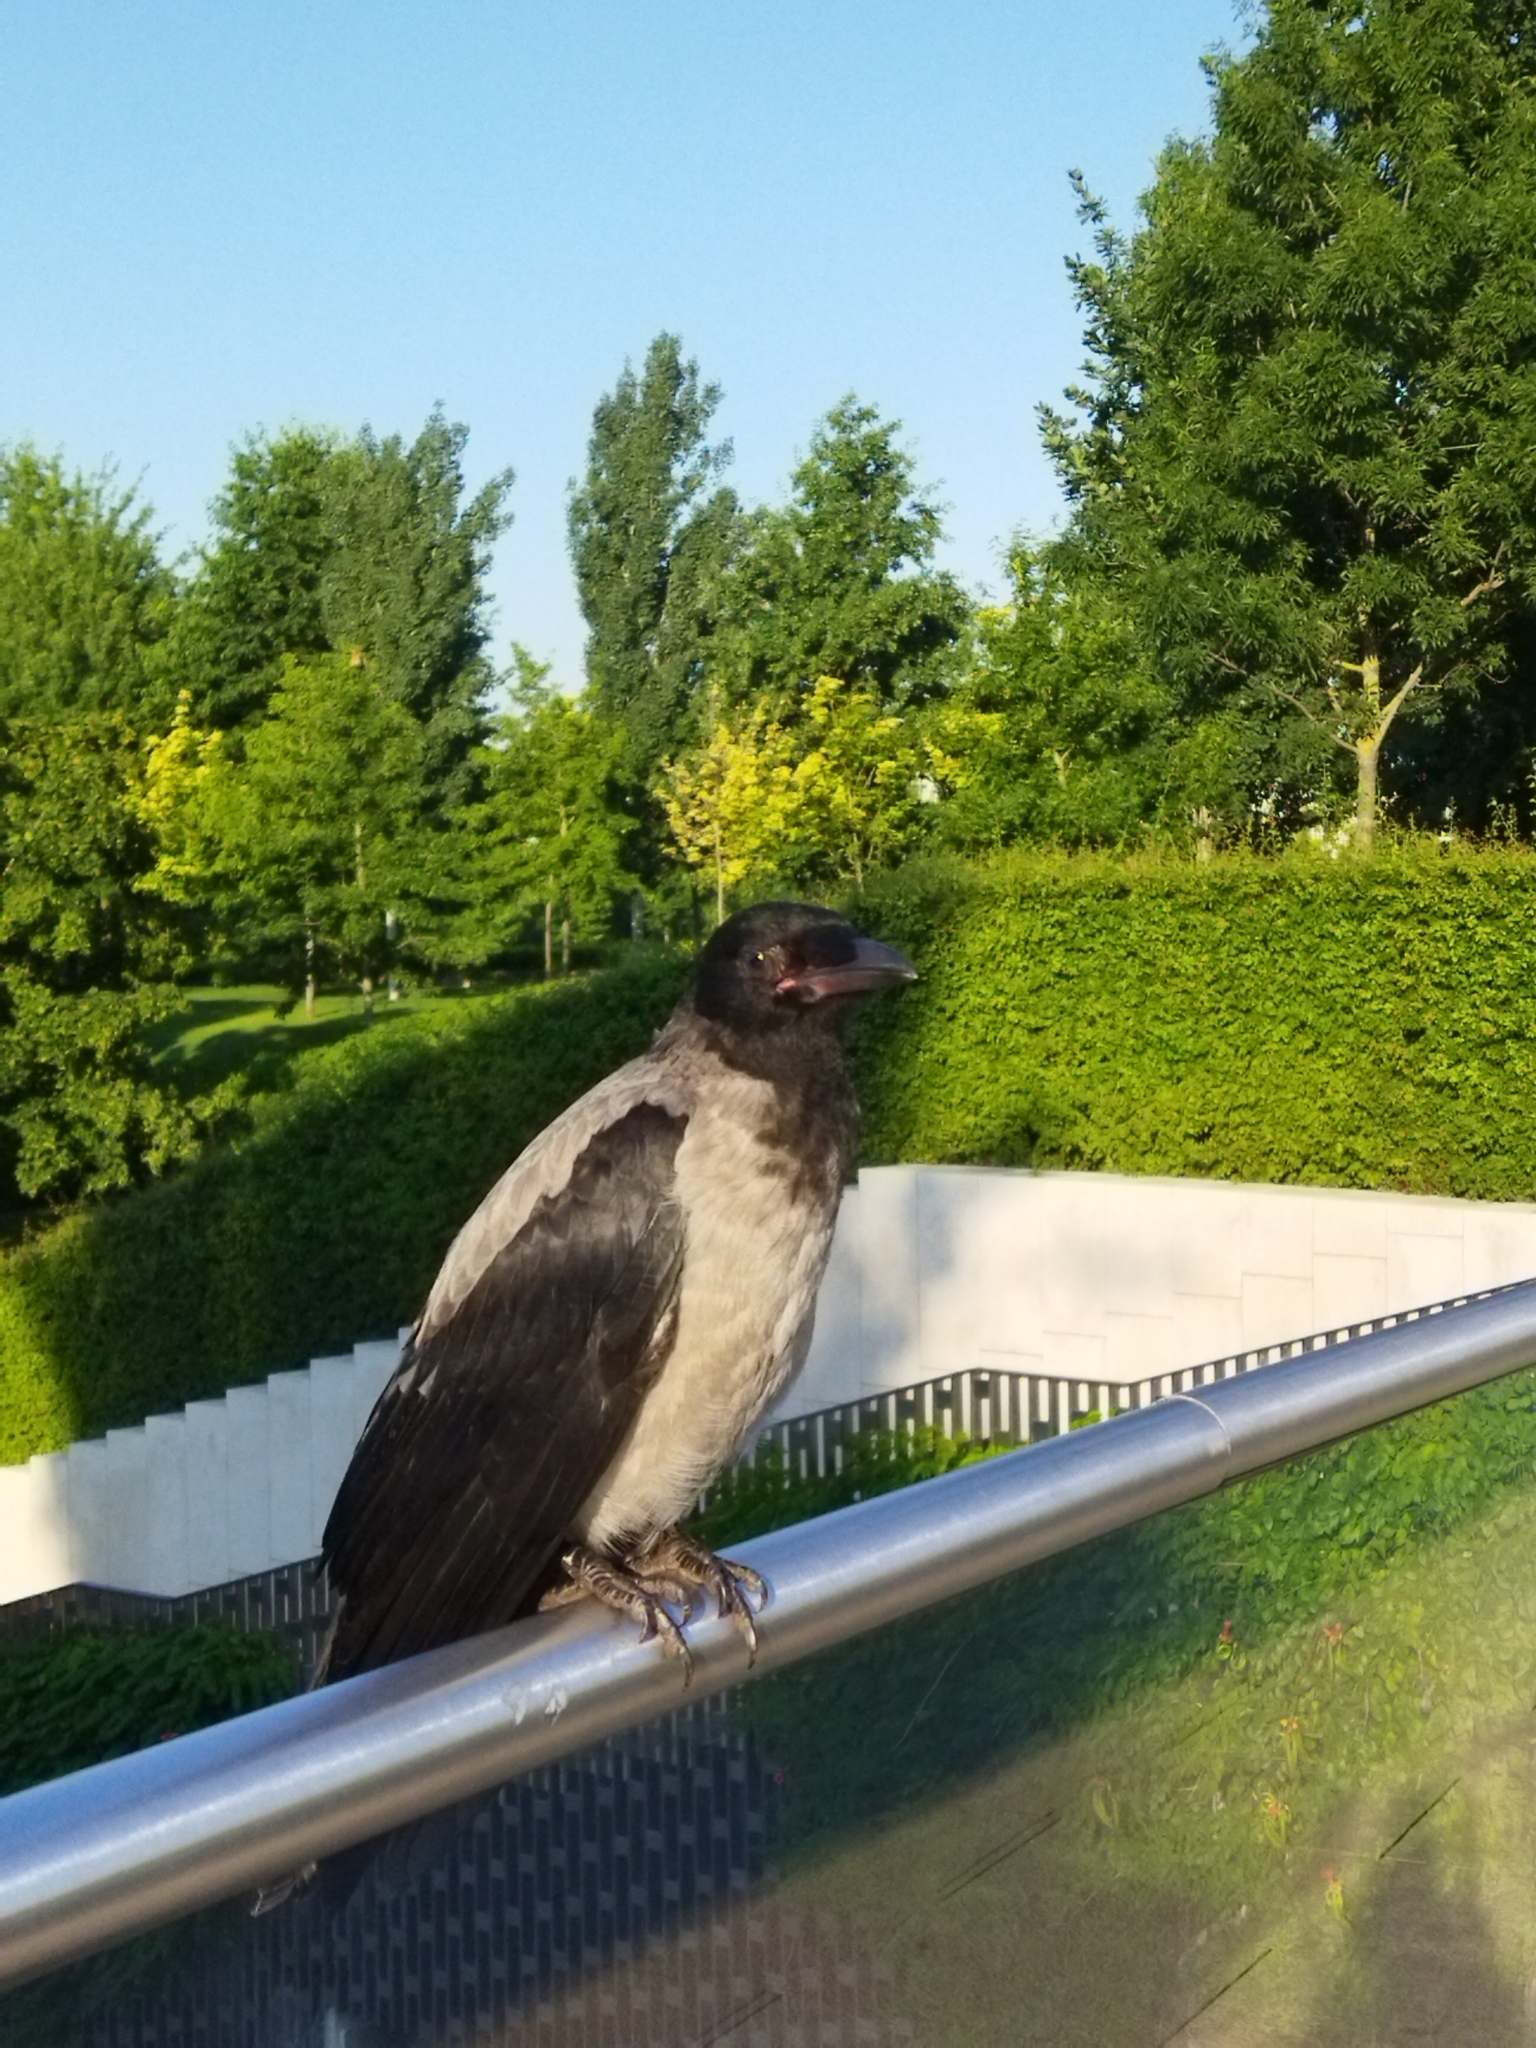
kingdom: Animalia
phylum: Chordata
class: Aves
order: Passeriformes
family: Corvidae
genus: Corvus
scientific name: Corvus cornix
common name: Hooded crow
